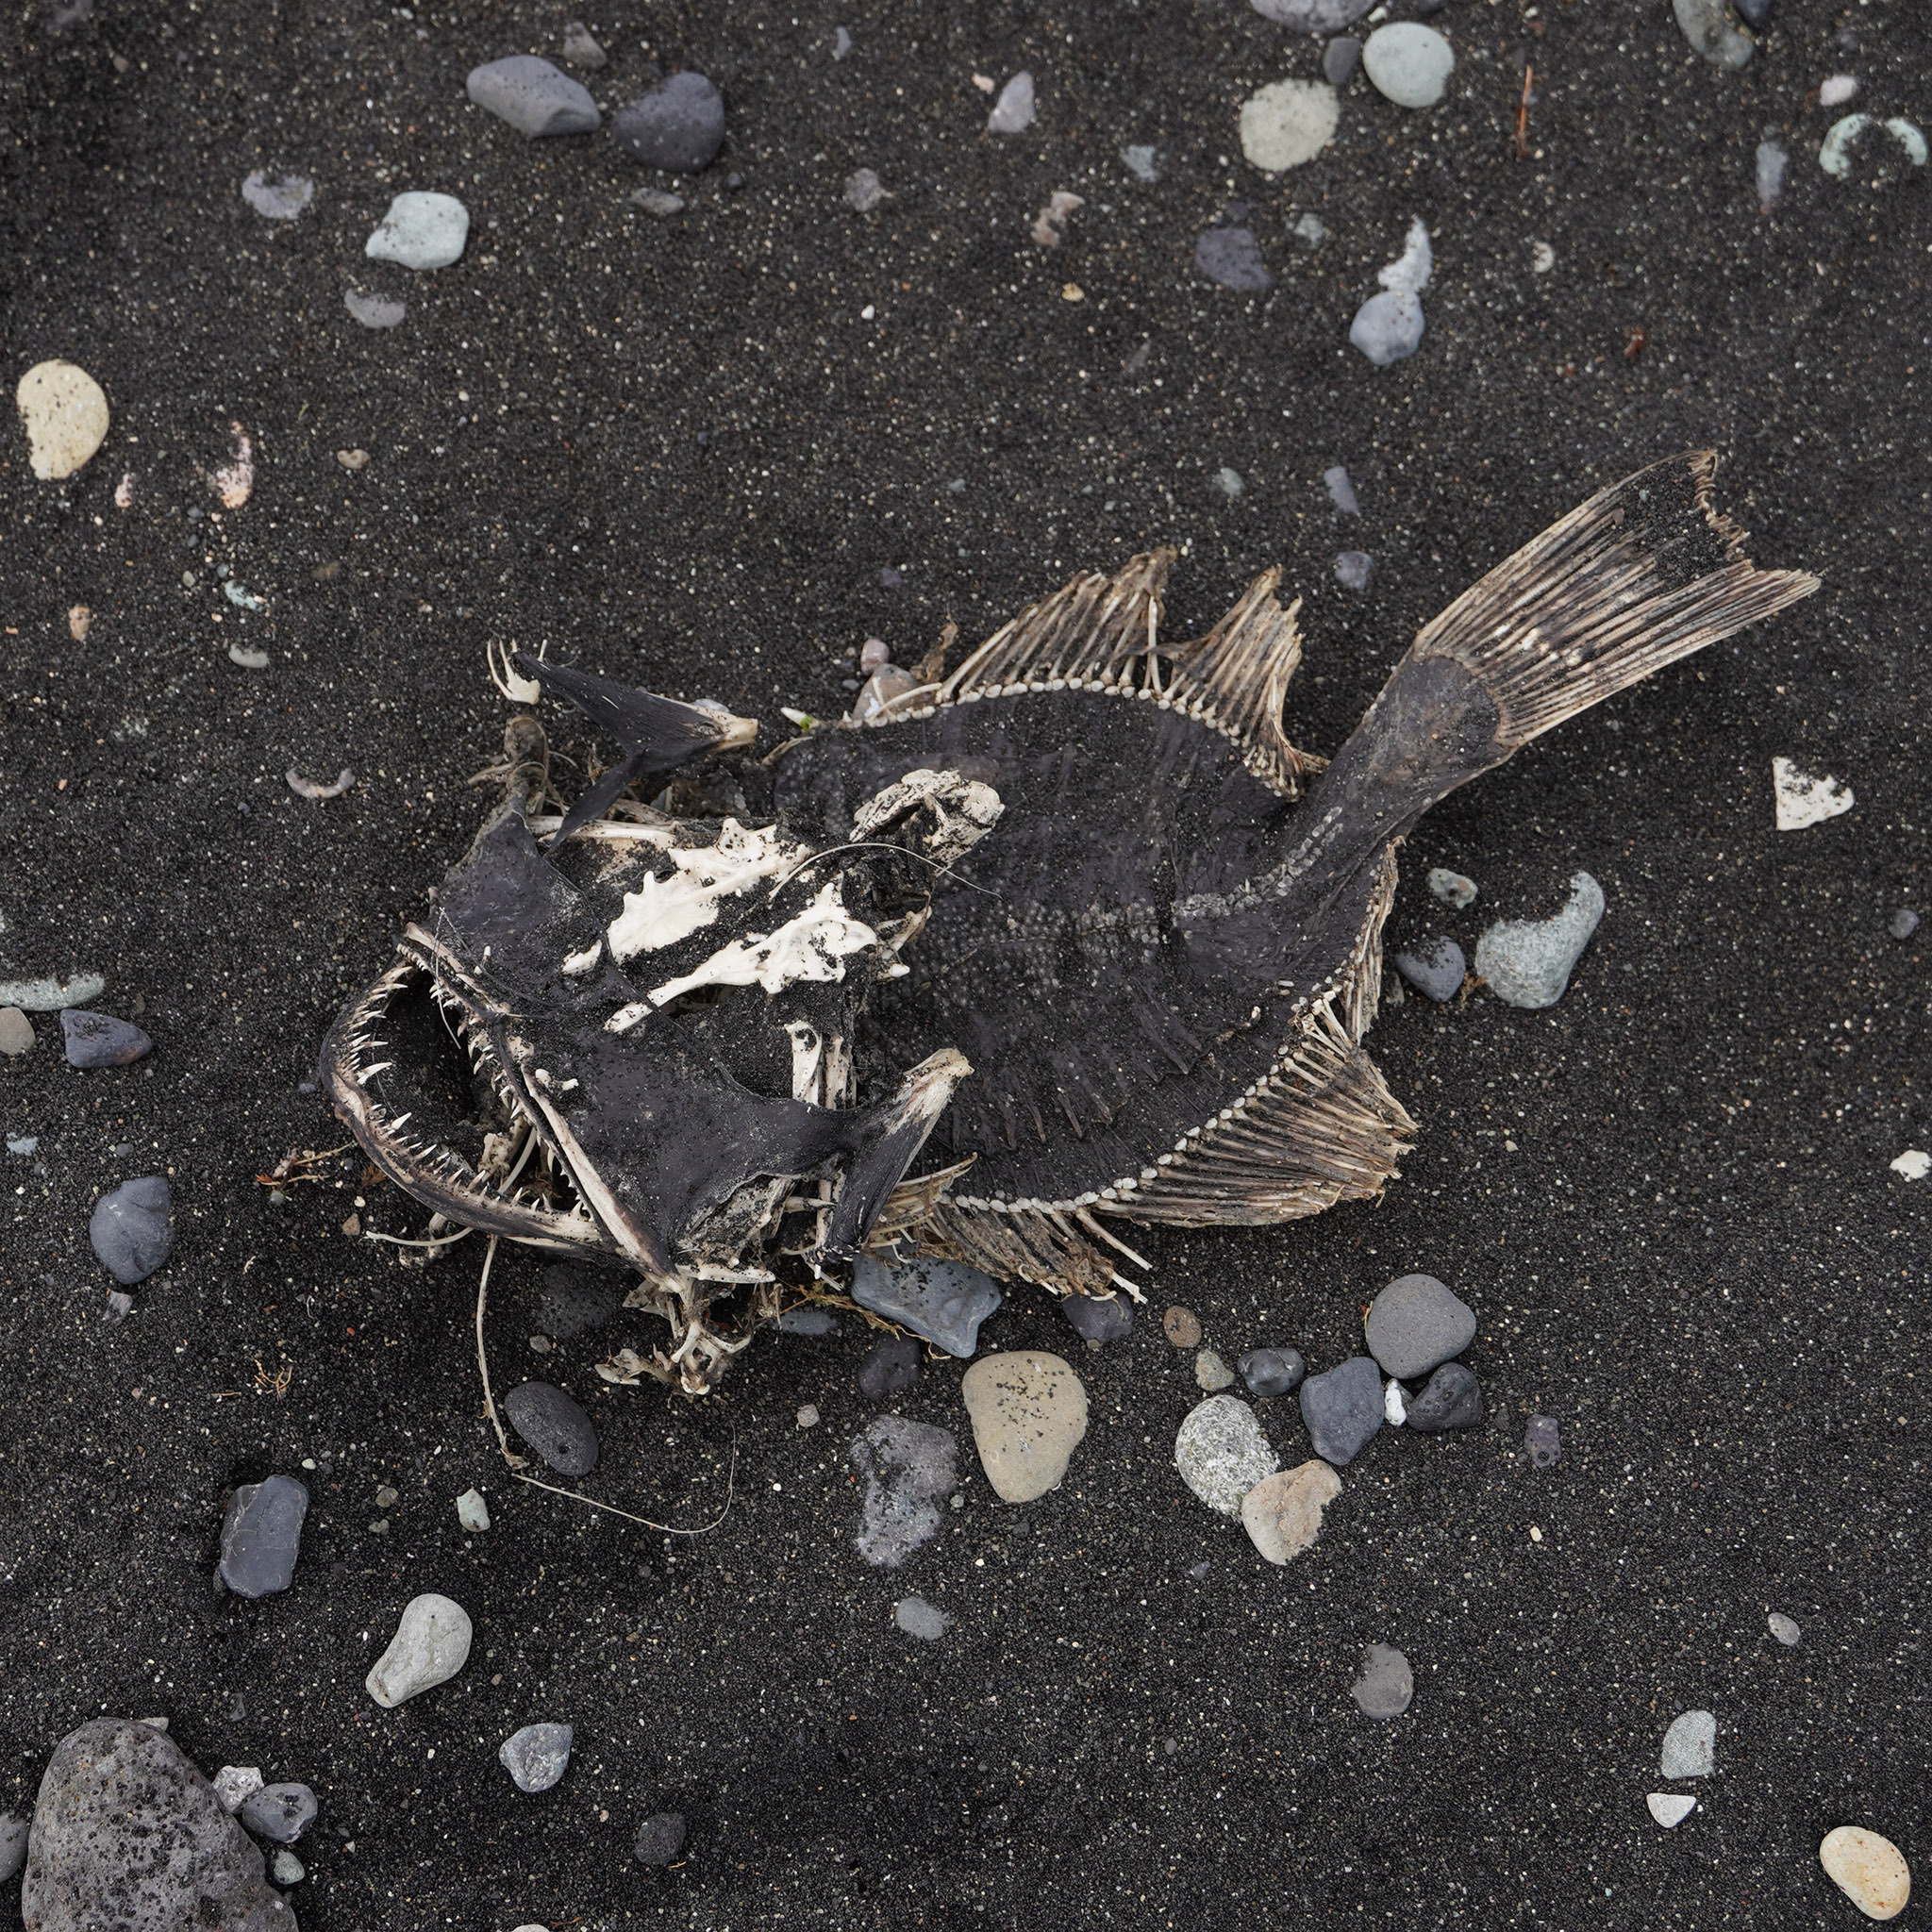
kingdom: Animalia
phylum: Chordata
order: Lophiiformes
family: Lophiidae
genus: Lophius
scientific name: Lophius piscatorius
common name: Angler
